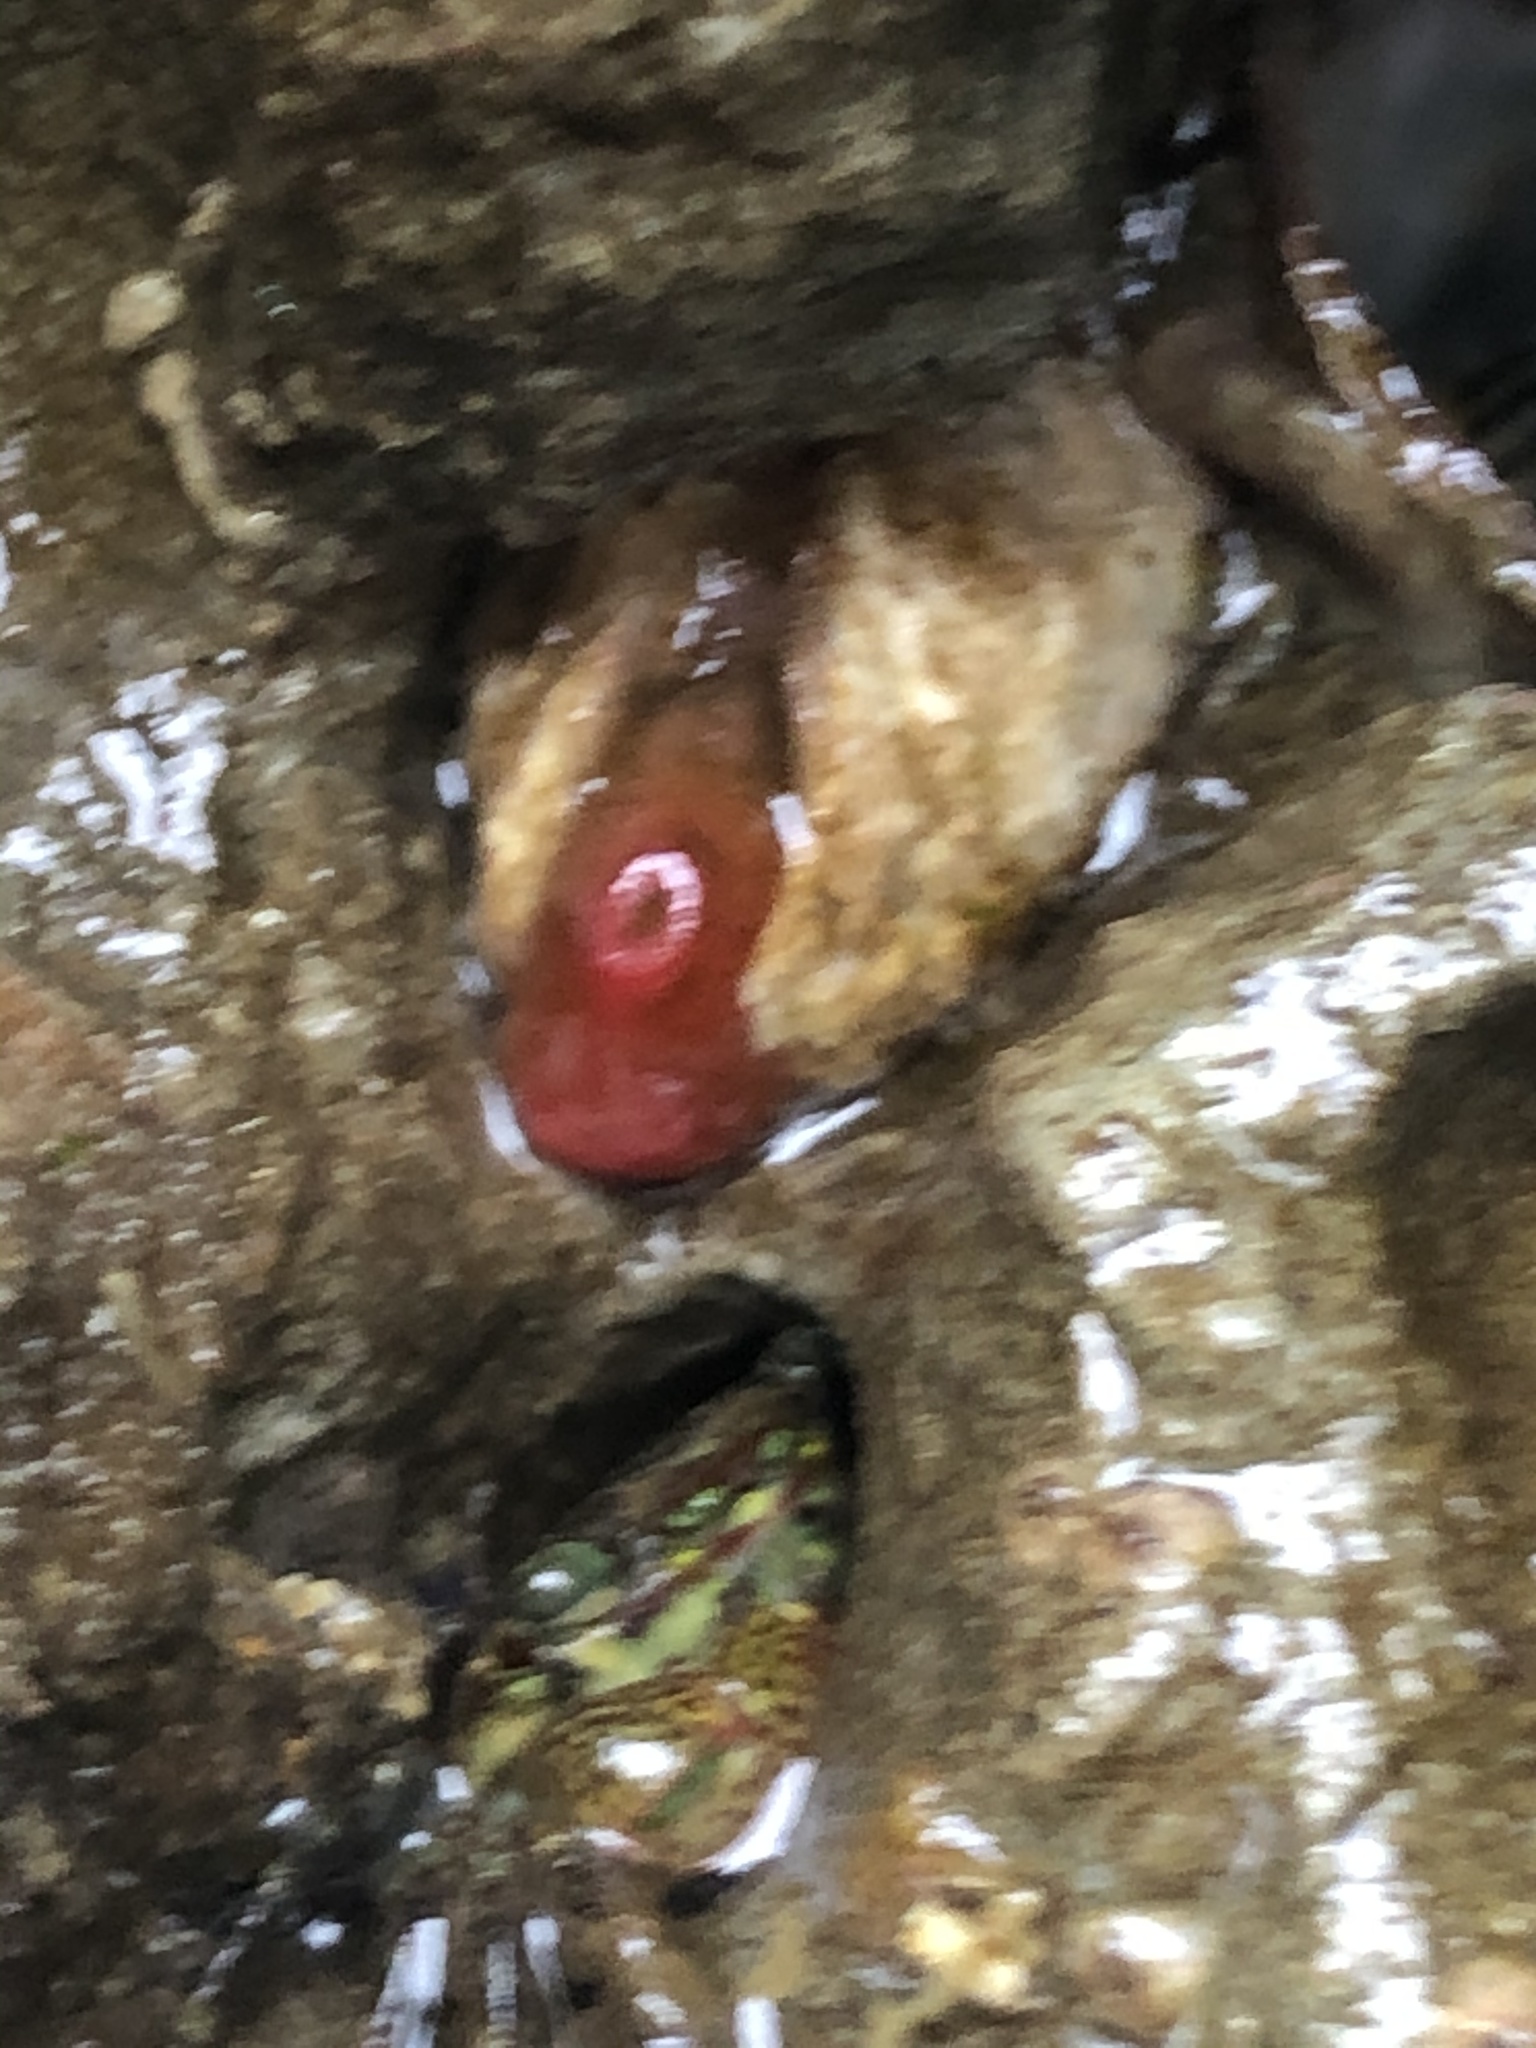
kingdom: Animalia
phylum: Mollusca
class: Bivalvia
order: Adapedonta
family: Hiatellidae
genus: Hiatella
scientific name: Hiatella arctica
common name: Arctic hiatella
